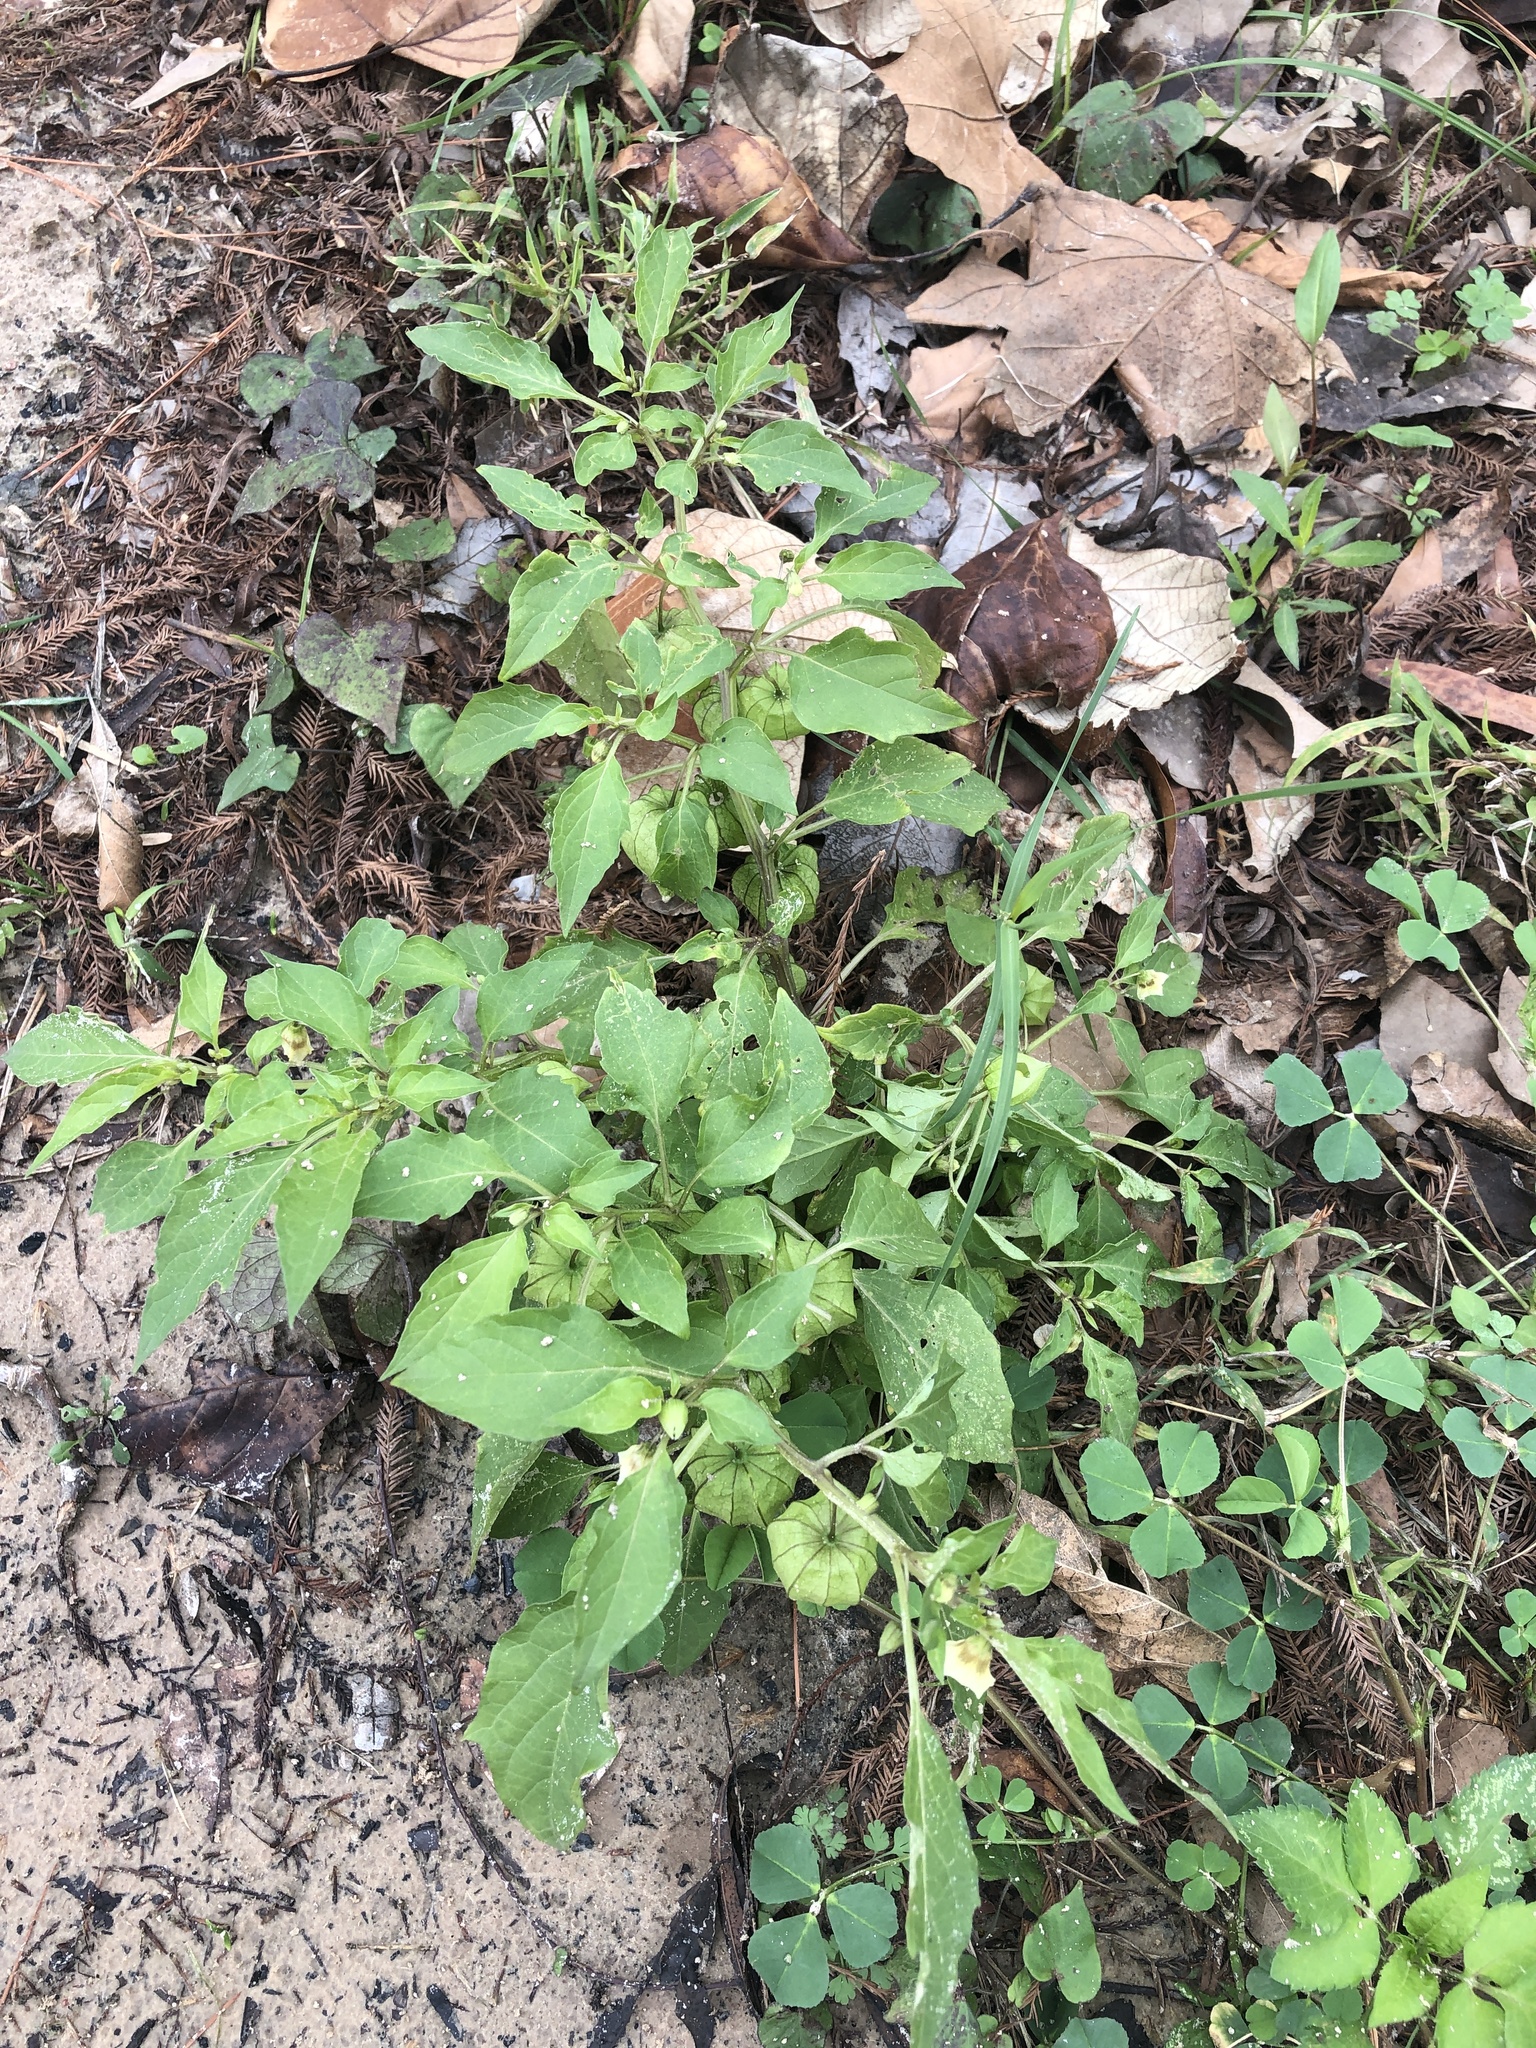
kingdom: Plantae
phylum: Tracheophyta
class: Magnoliopsida
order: Solanales
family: Solanaceae
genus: Physalis
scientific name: Physalis angulata
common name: Angular winter-cherry
